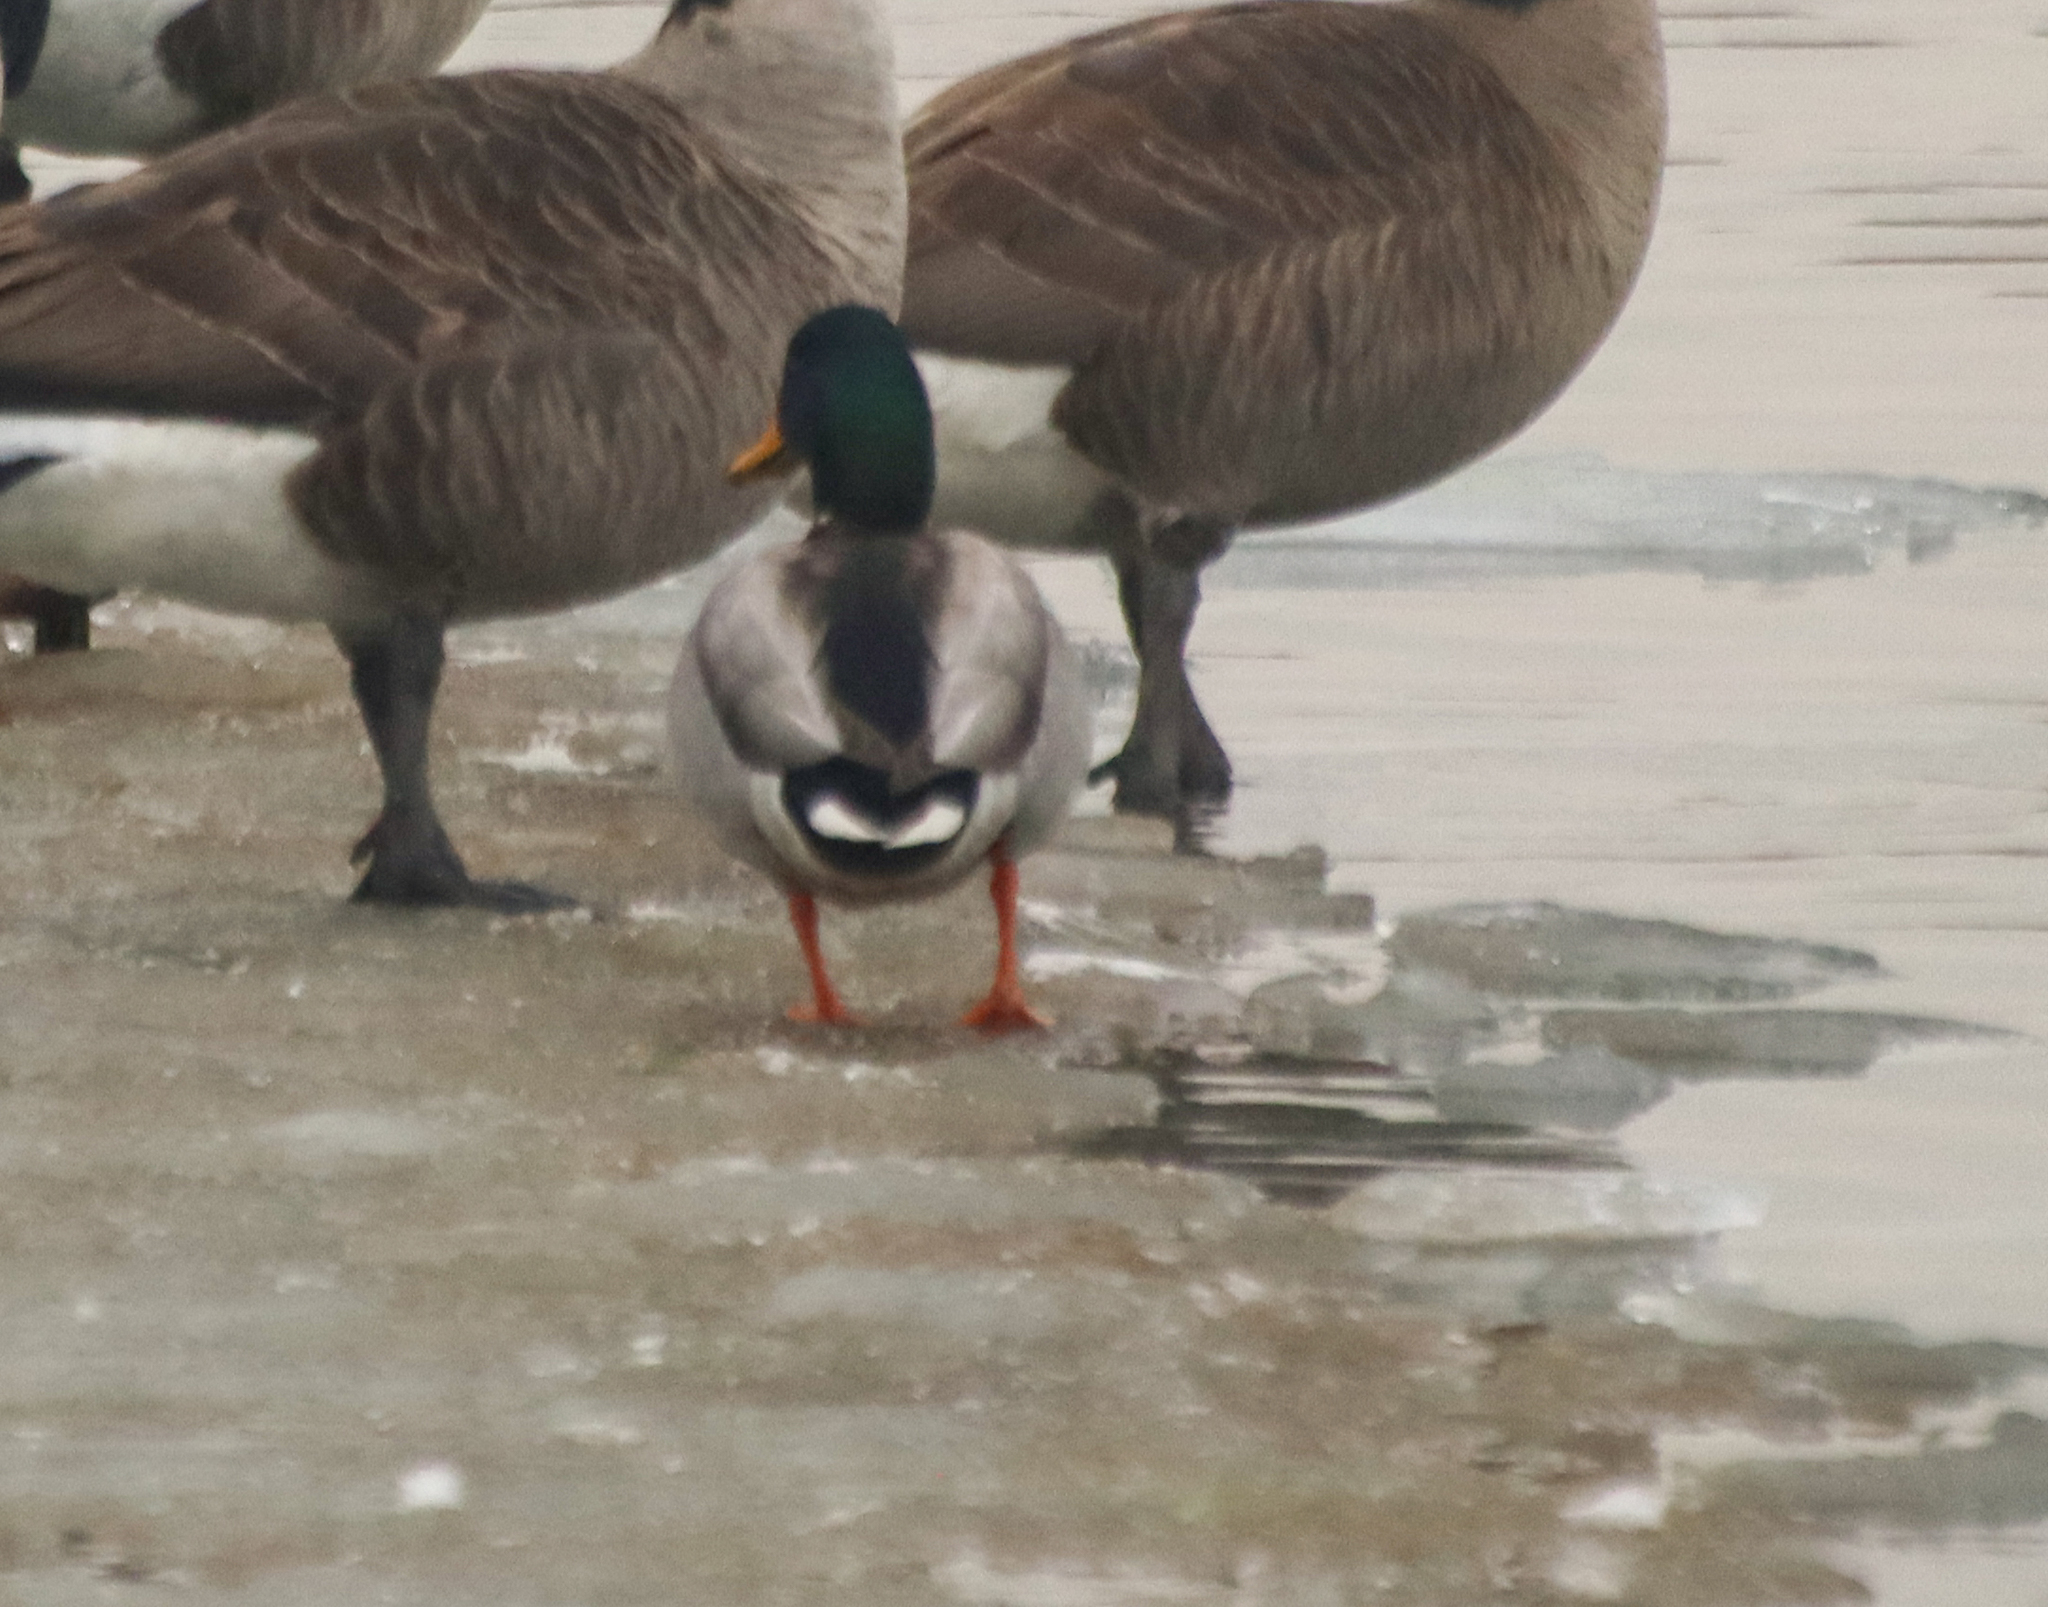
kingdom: Animalia
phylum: Chordata
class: Aves
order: Anseriformes
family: Anatidae
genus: Anas
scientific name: Anas platyrhynchos
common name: Mallard
